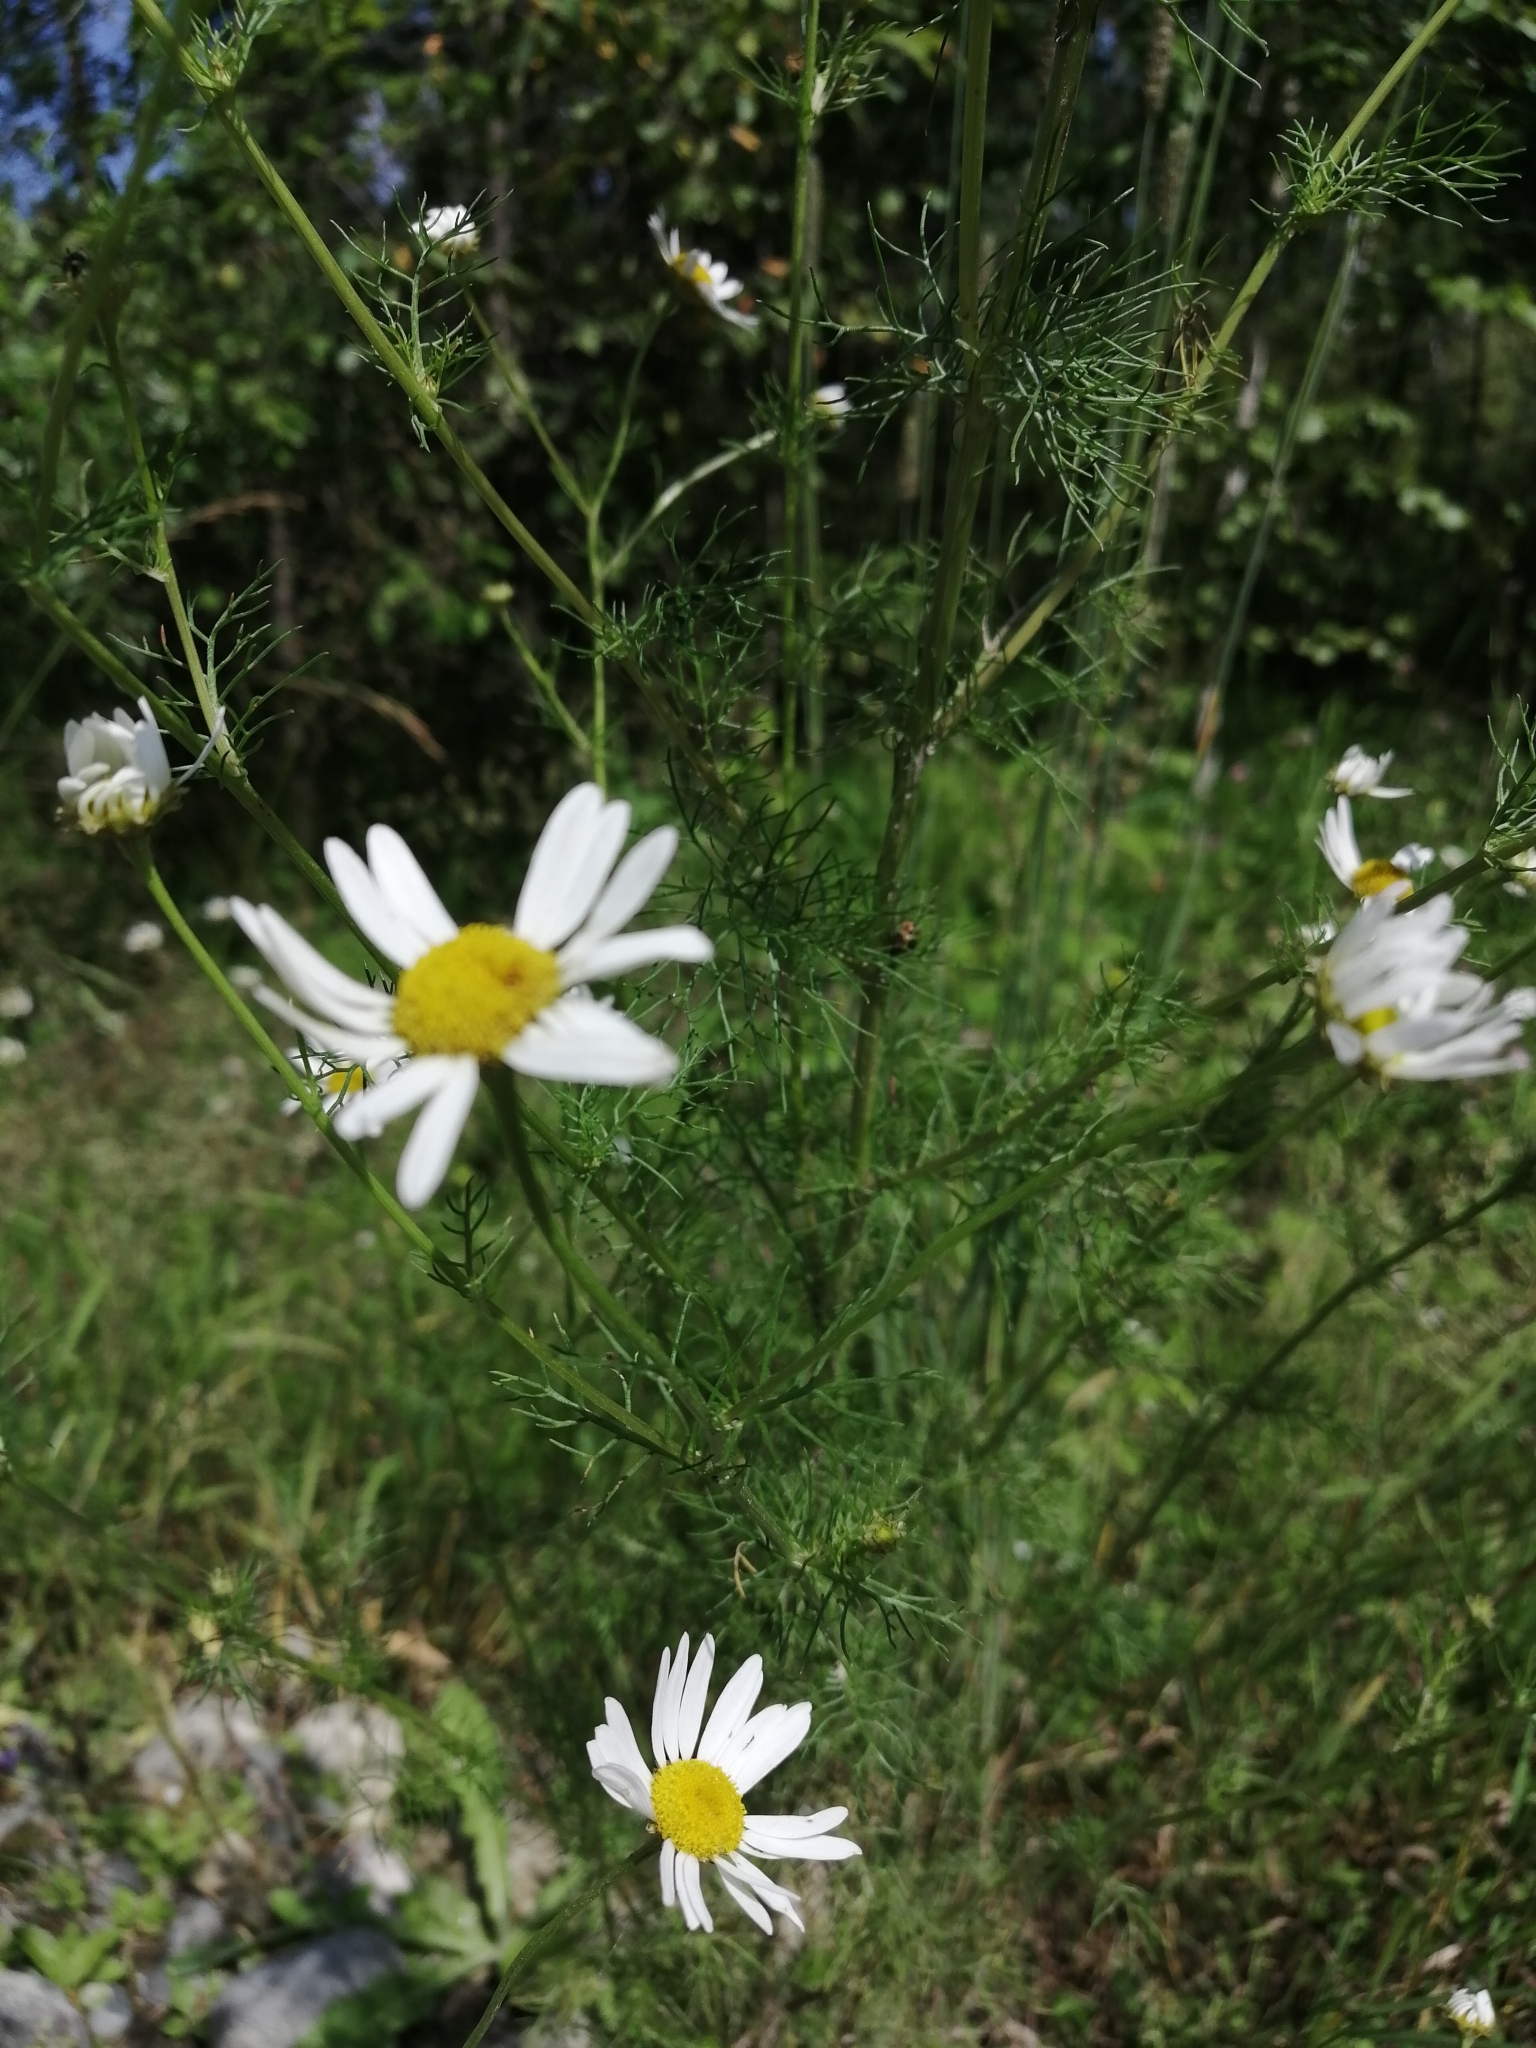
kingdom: Plantae
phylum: Tracheophyta
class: Magnoliopsida
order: Asterales
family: Asteraceae
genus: Tripleurospermum
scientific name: Tripleurospermum inodorum
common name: Scentless mayweed
